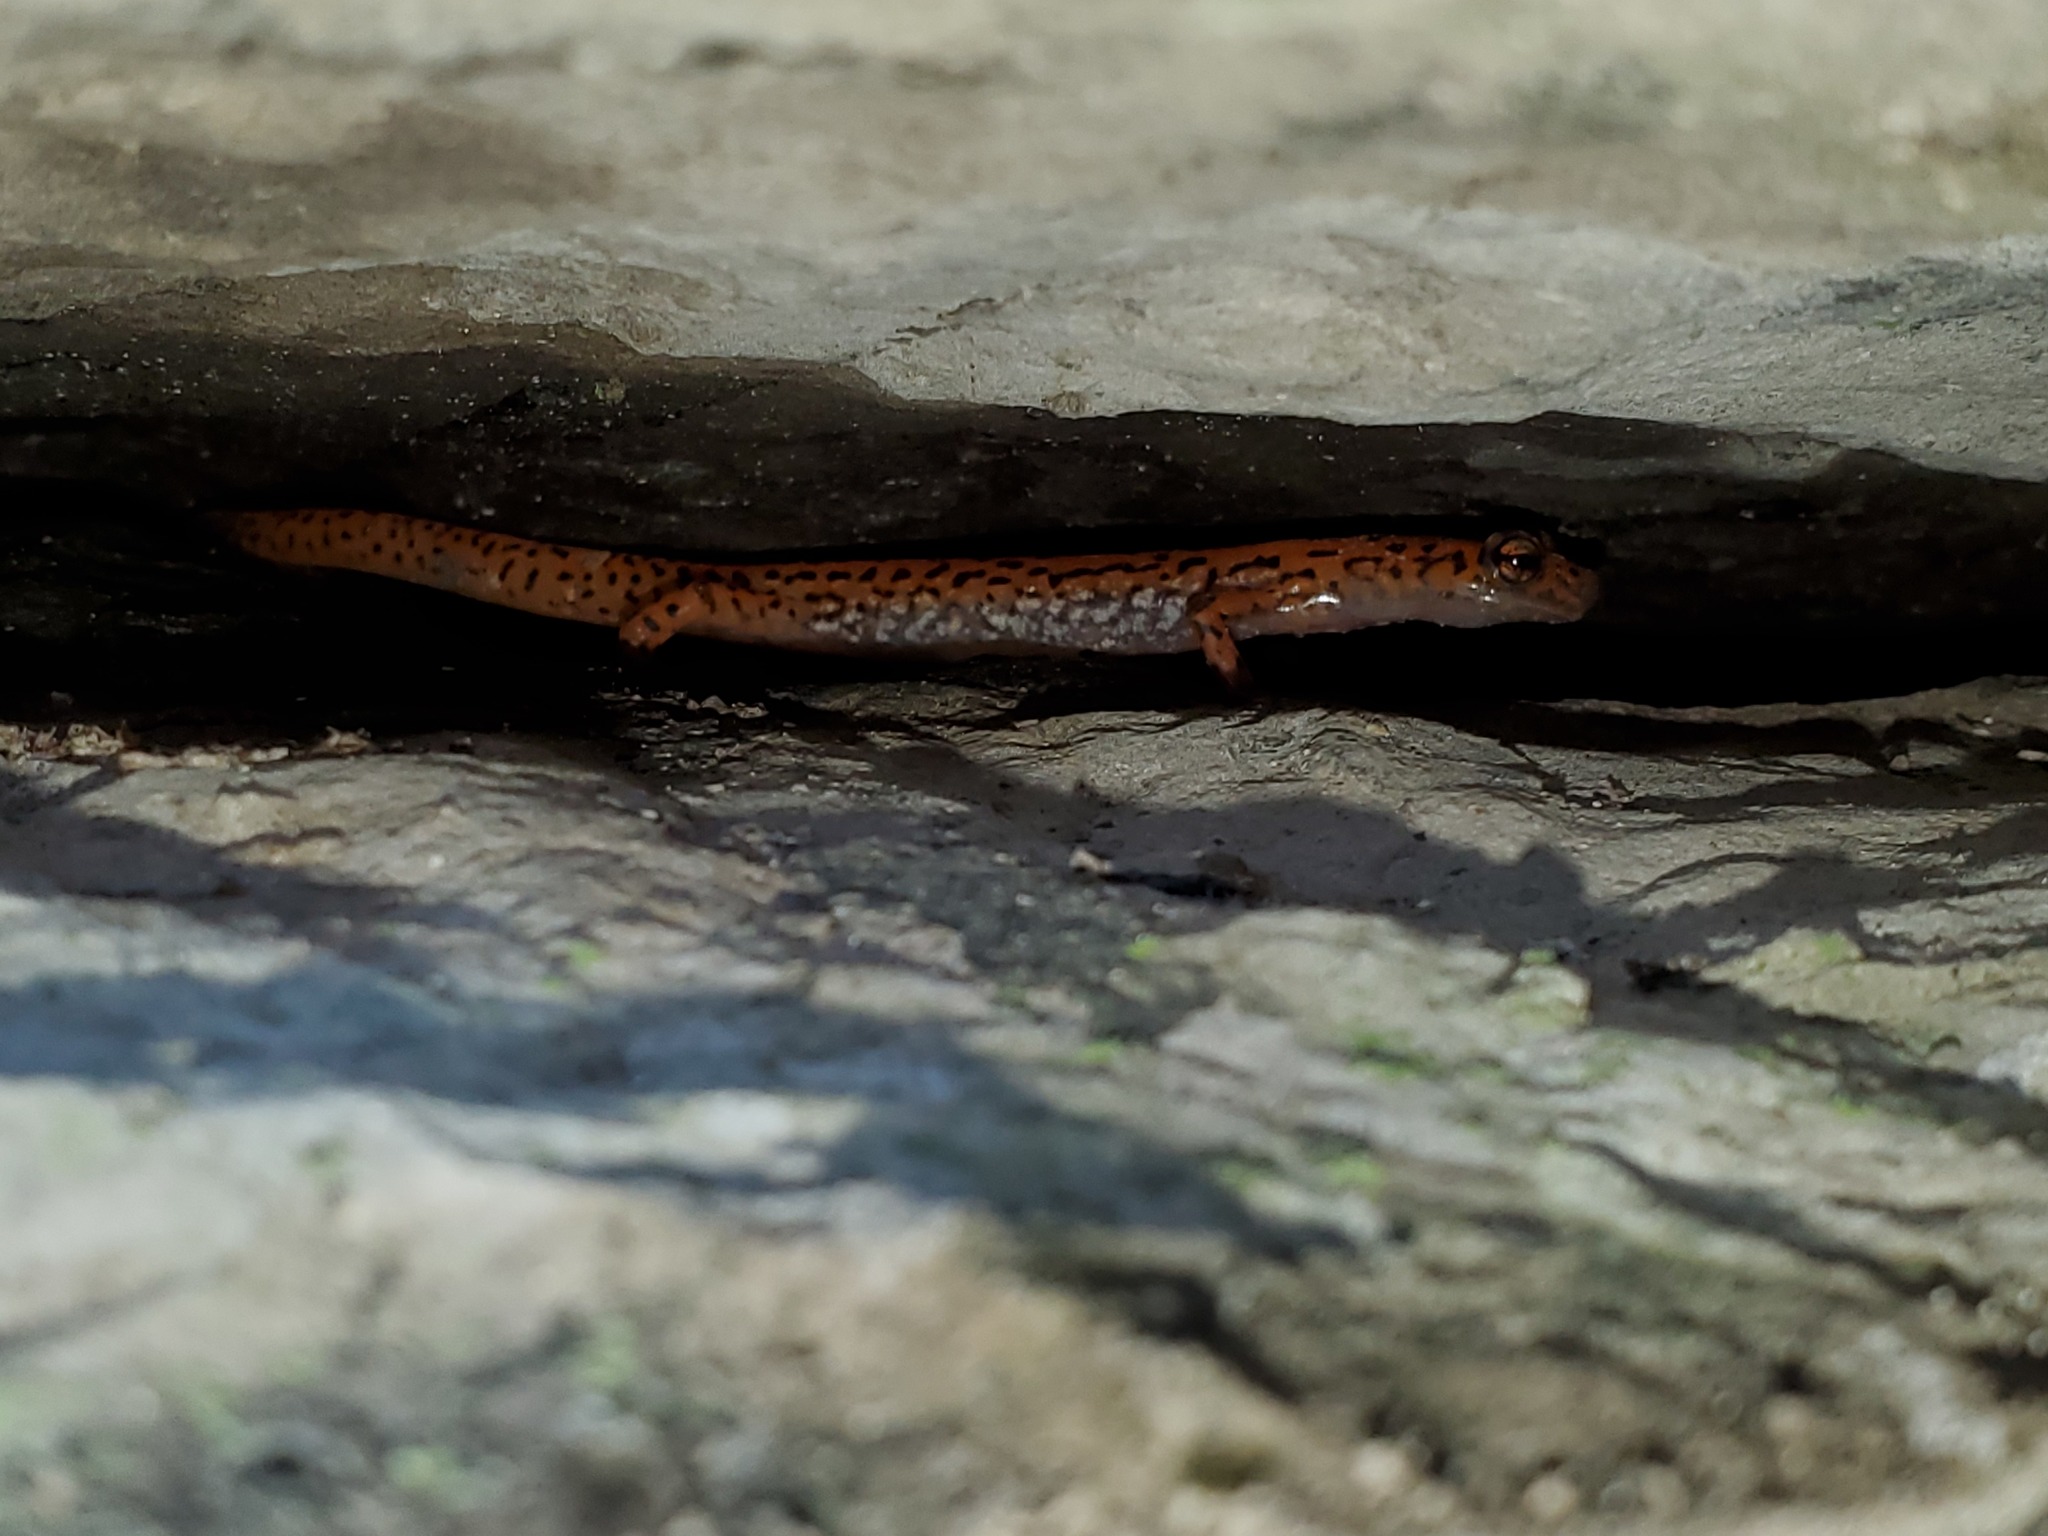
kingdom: Animalia
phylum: Chordata
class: Amphibia
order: Caudata
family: Plethodontidae
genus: Eurycea
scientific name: Eurycea lucifuga
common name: Cave salamander
